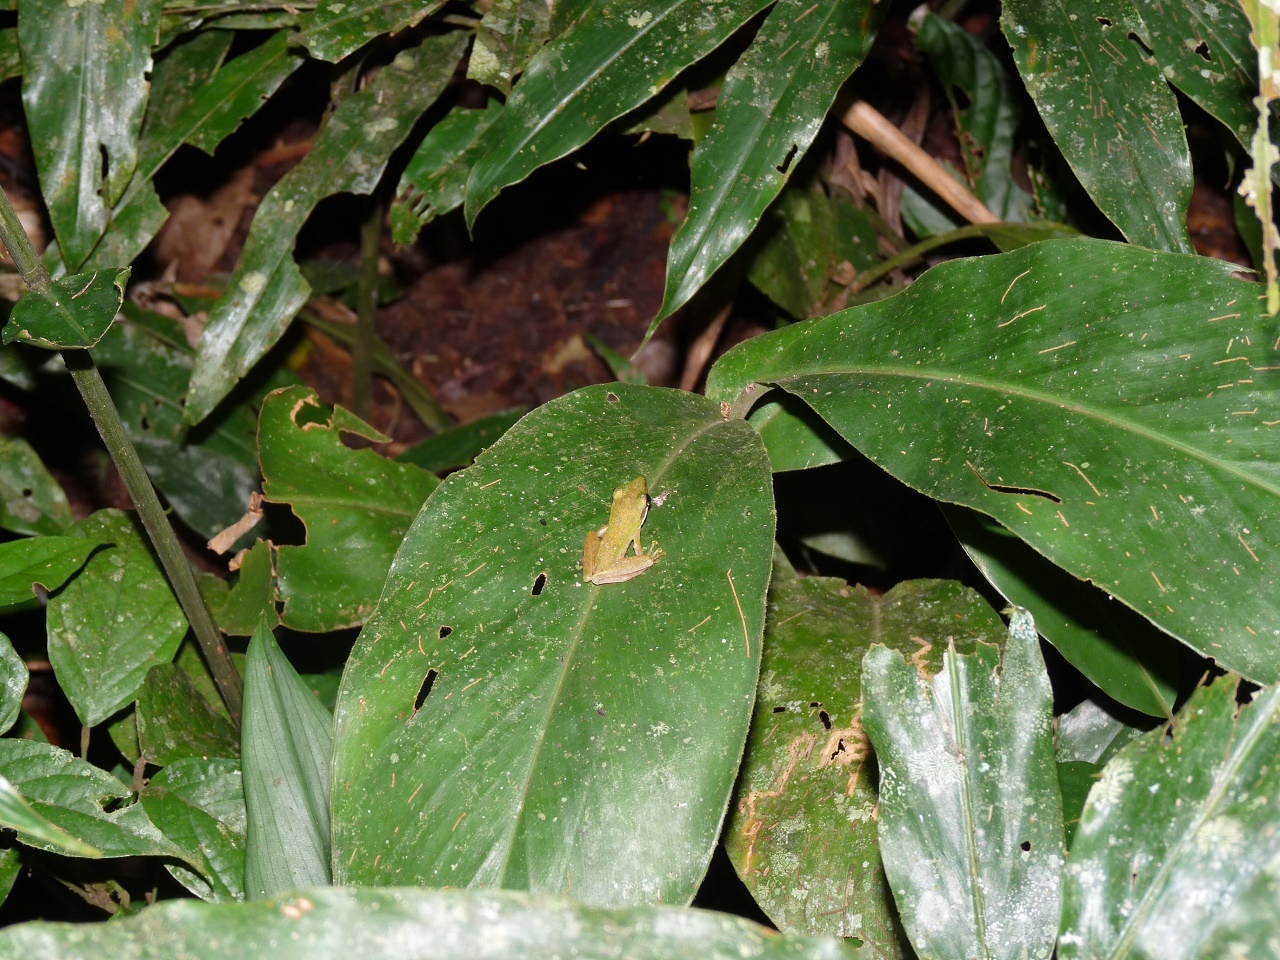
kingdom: Animalia
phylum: Chordata
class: Amphibia
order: Anura
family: Ranidae
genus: Chalcorana
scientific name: Chalcorana raniceps
